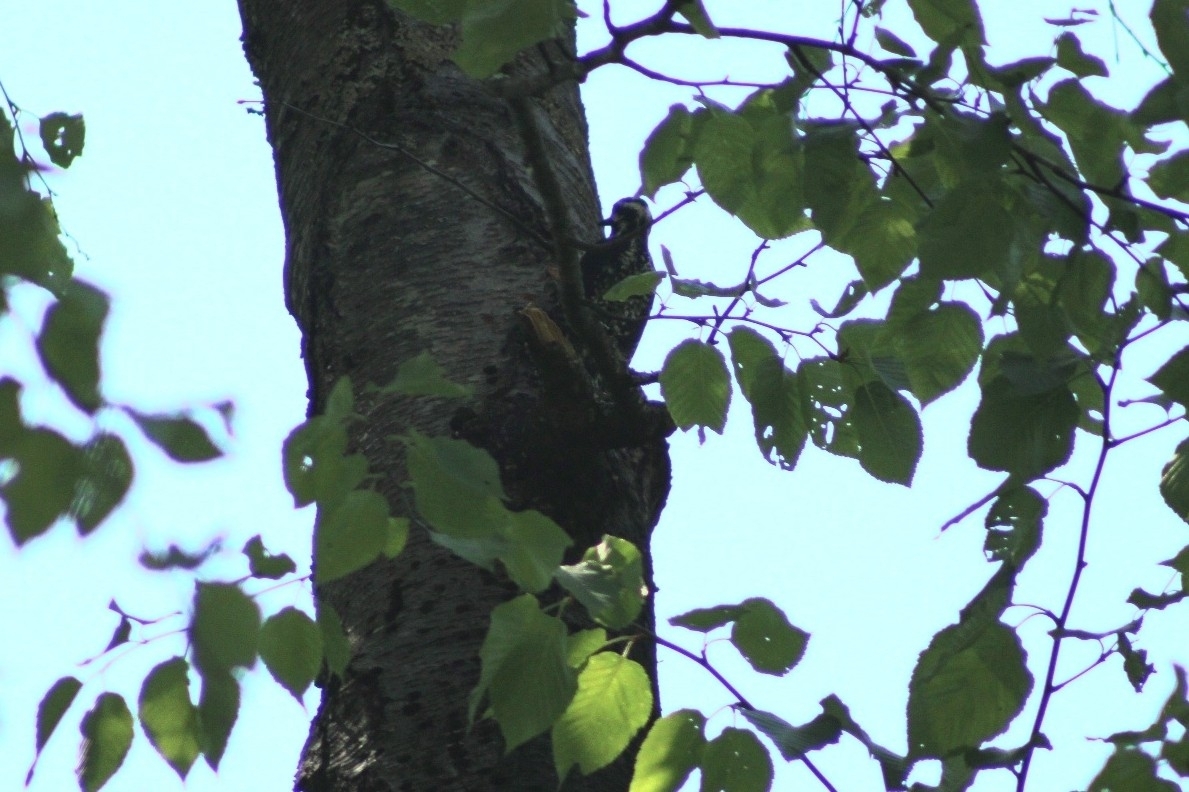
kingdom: Animalia
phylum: Chordata
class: Aves
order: Piciformes
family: Picidae
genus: Sphyrapicus
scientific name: Sphyrapicus varius
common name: Yellow-bellied sapsucker
